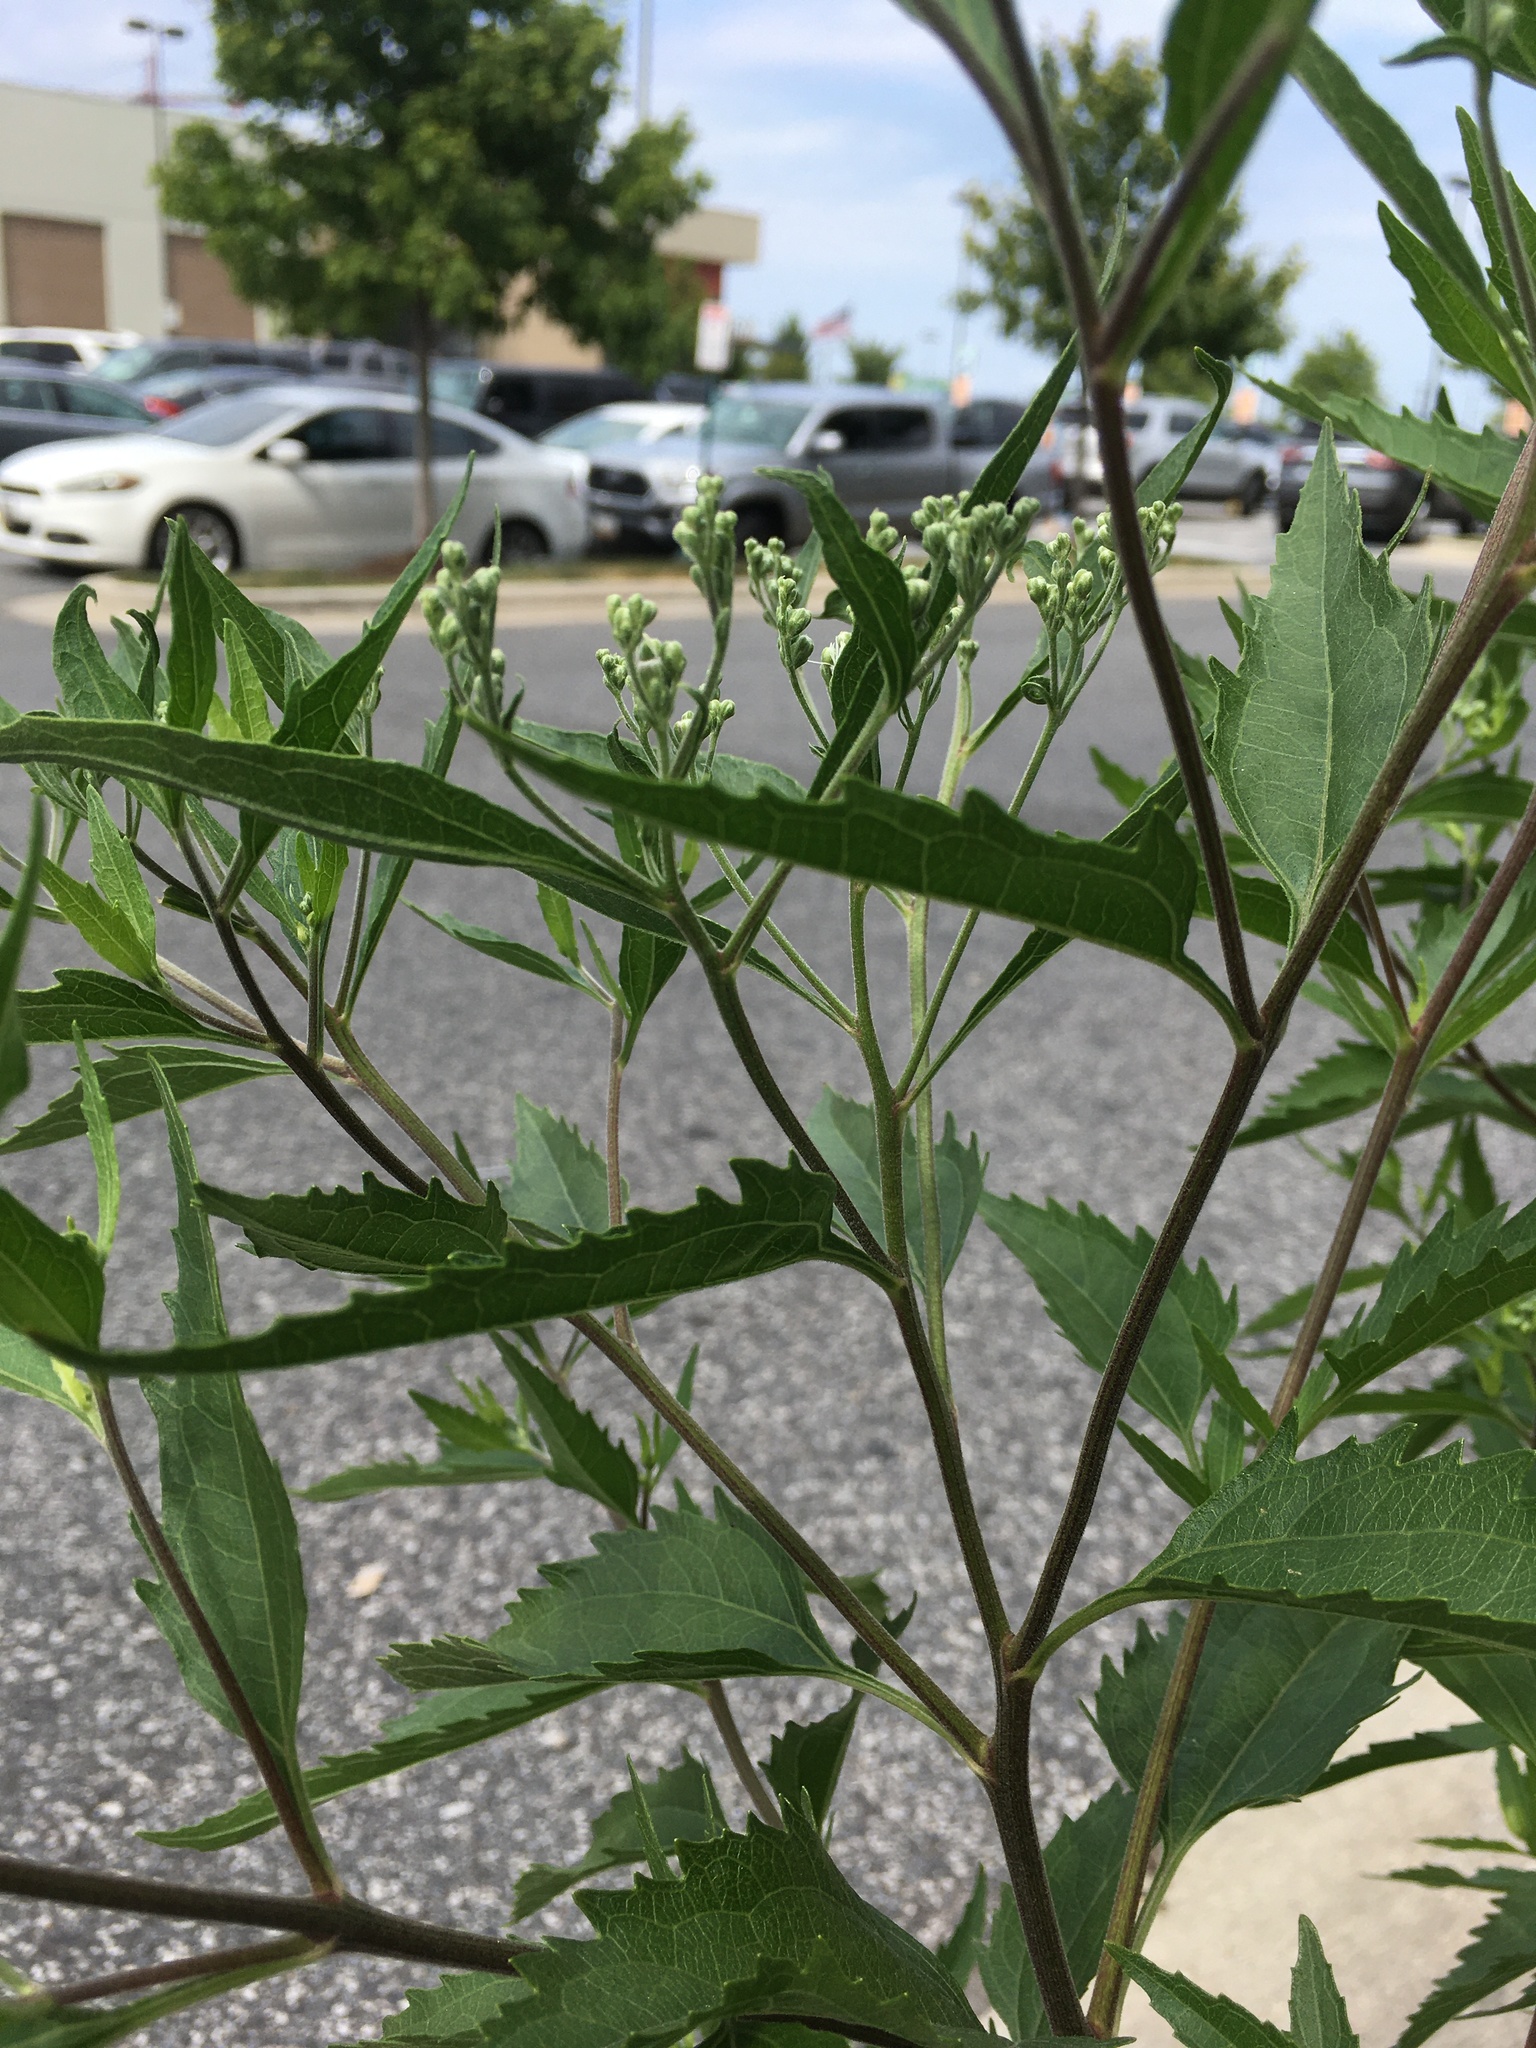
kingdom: Plantae
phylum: Tracheophyta
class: Magnoliopsida
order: Asterales
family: Asteraceae
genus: Eupatorium
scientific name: Eupatorium serotinum
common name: Late boneset
